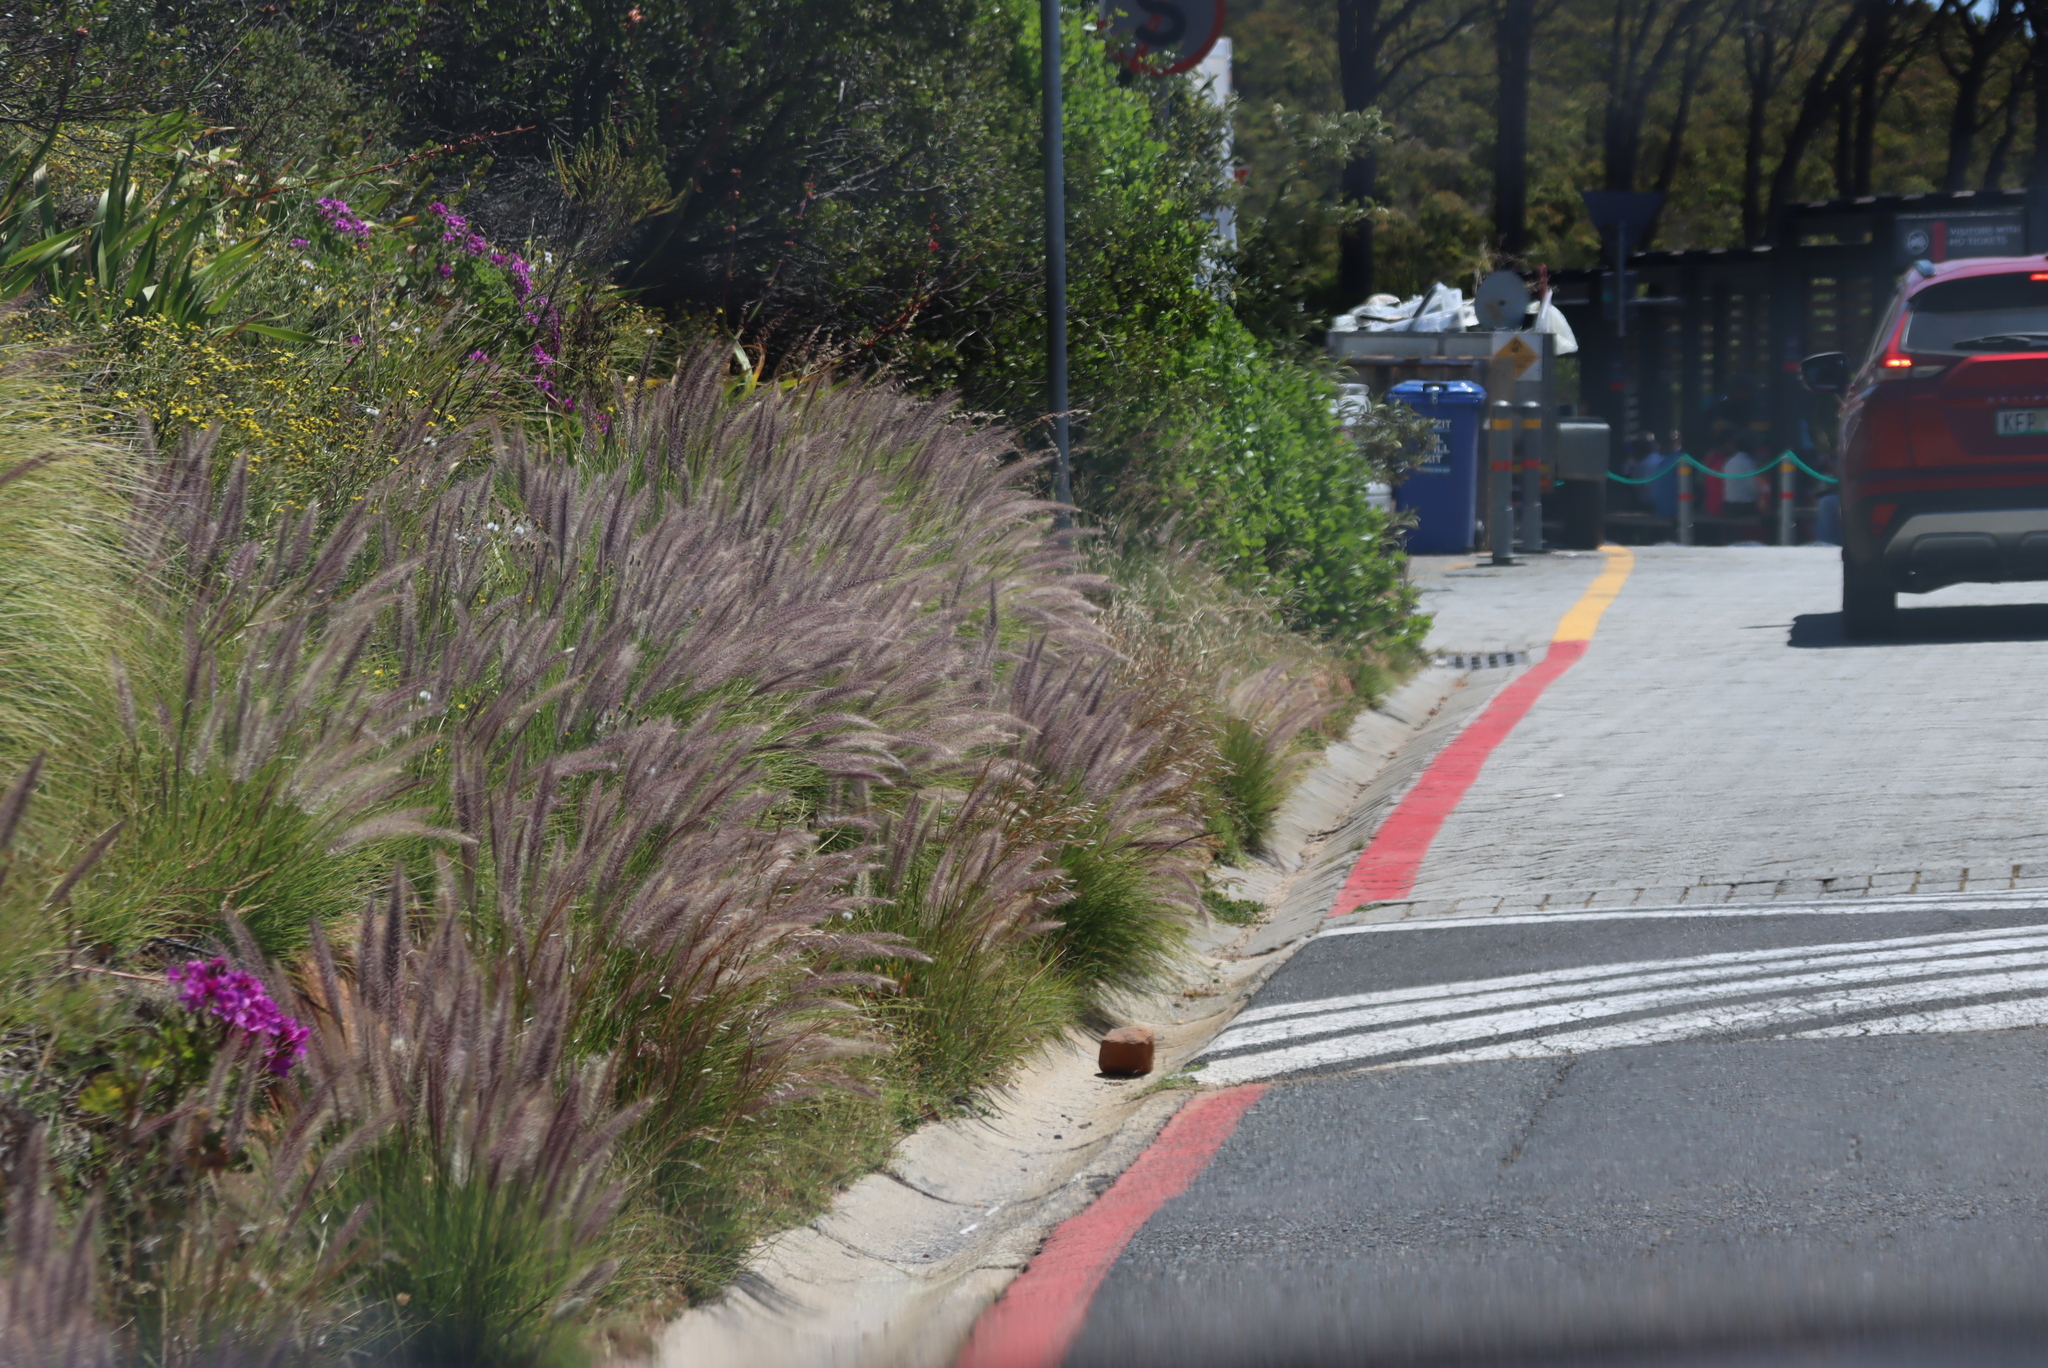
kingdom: Plantae
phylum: Tracheophyta
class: Liliopsida
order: Poales
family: Poaceae
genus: Cenchrus
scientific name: Cenchrus setaceus
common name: Crimson fountaingrass
